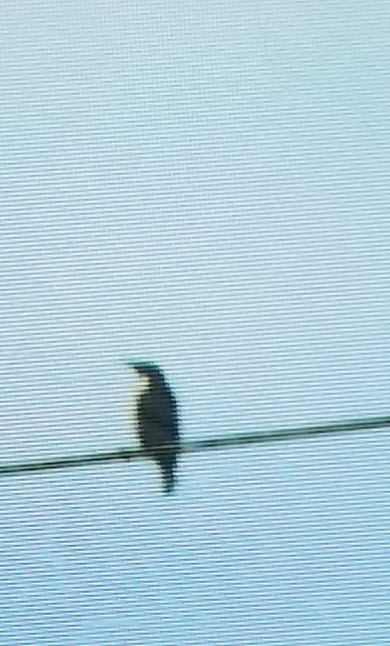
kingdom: Animalia
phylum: Chordata
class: Aves
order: Passeriformes
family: Sturnidae
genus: Sturnus
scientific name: Sturnus vulgaris
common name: Common starling
